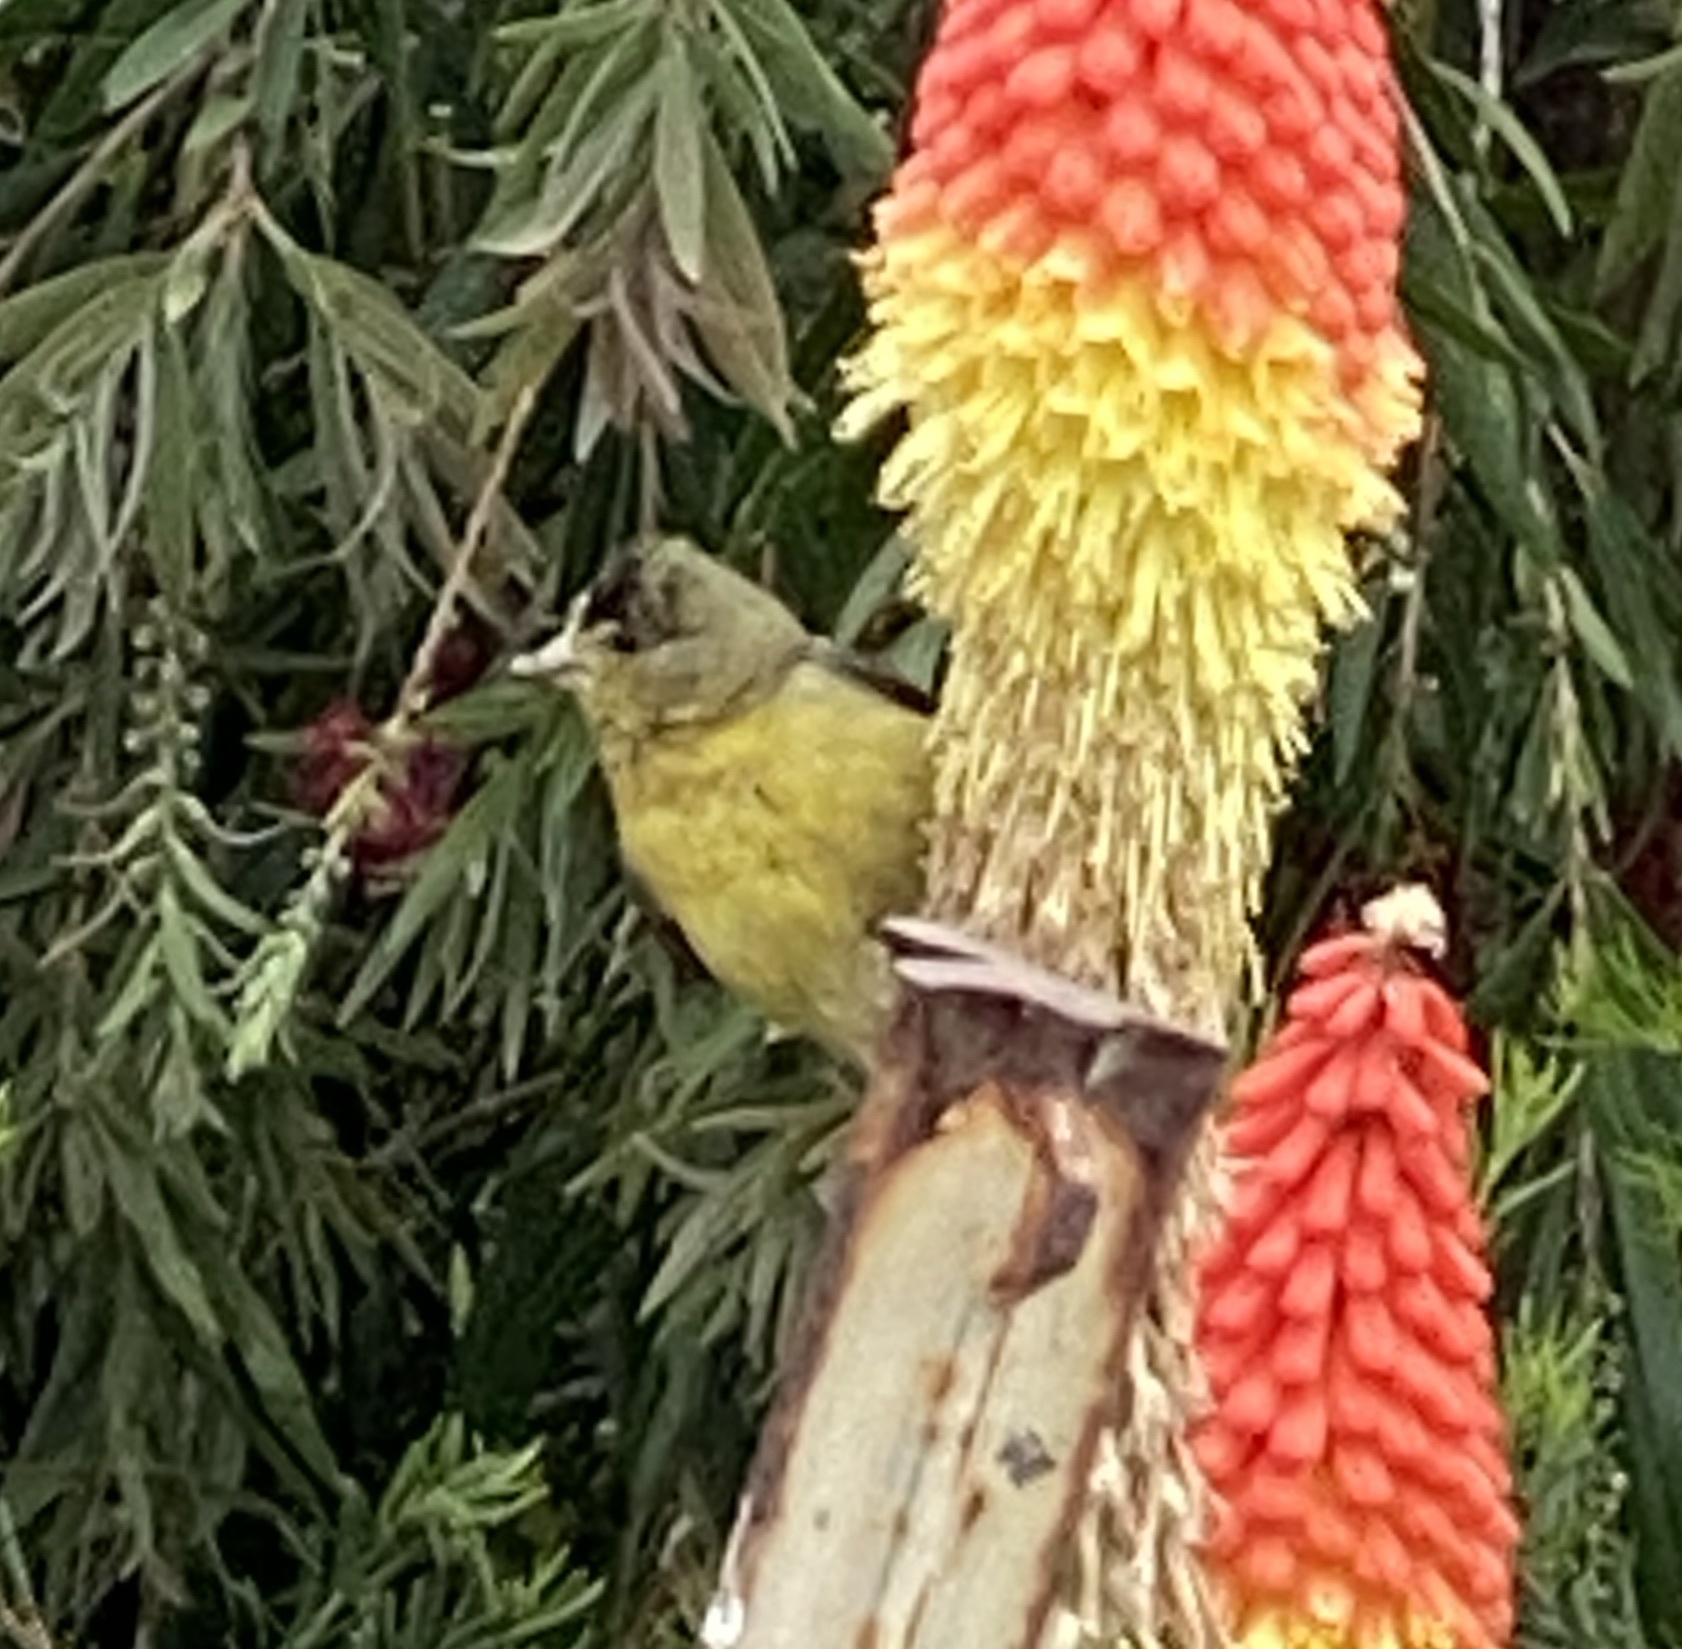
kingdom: Animalia
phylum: Chordata
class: Aves
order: Passeriformes
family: Fringillidae
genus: Spinus
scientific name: Spinus psaltria
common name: Lesser goldfinch
